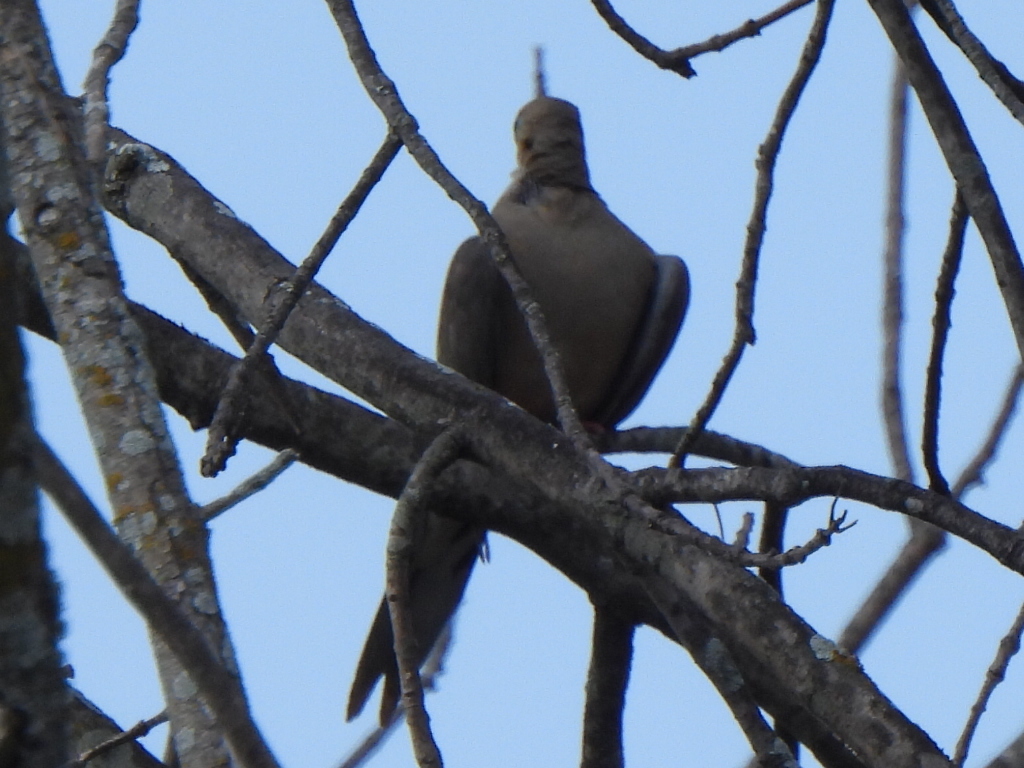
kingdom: Animalia
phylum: Chordata
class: Aves
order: Columbiformes
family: Columbidae
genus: Zenaida
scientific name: Zenaida macroura
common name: Mourning dove
